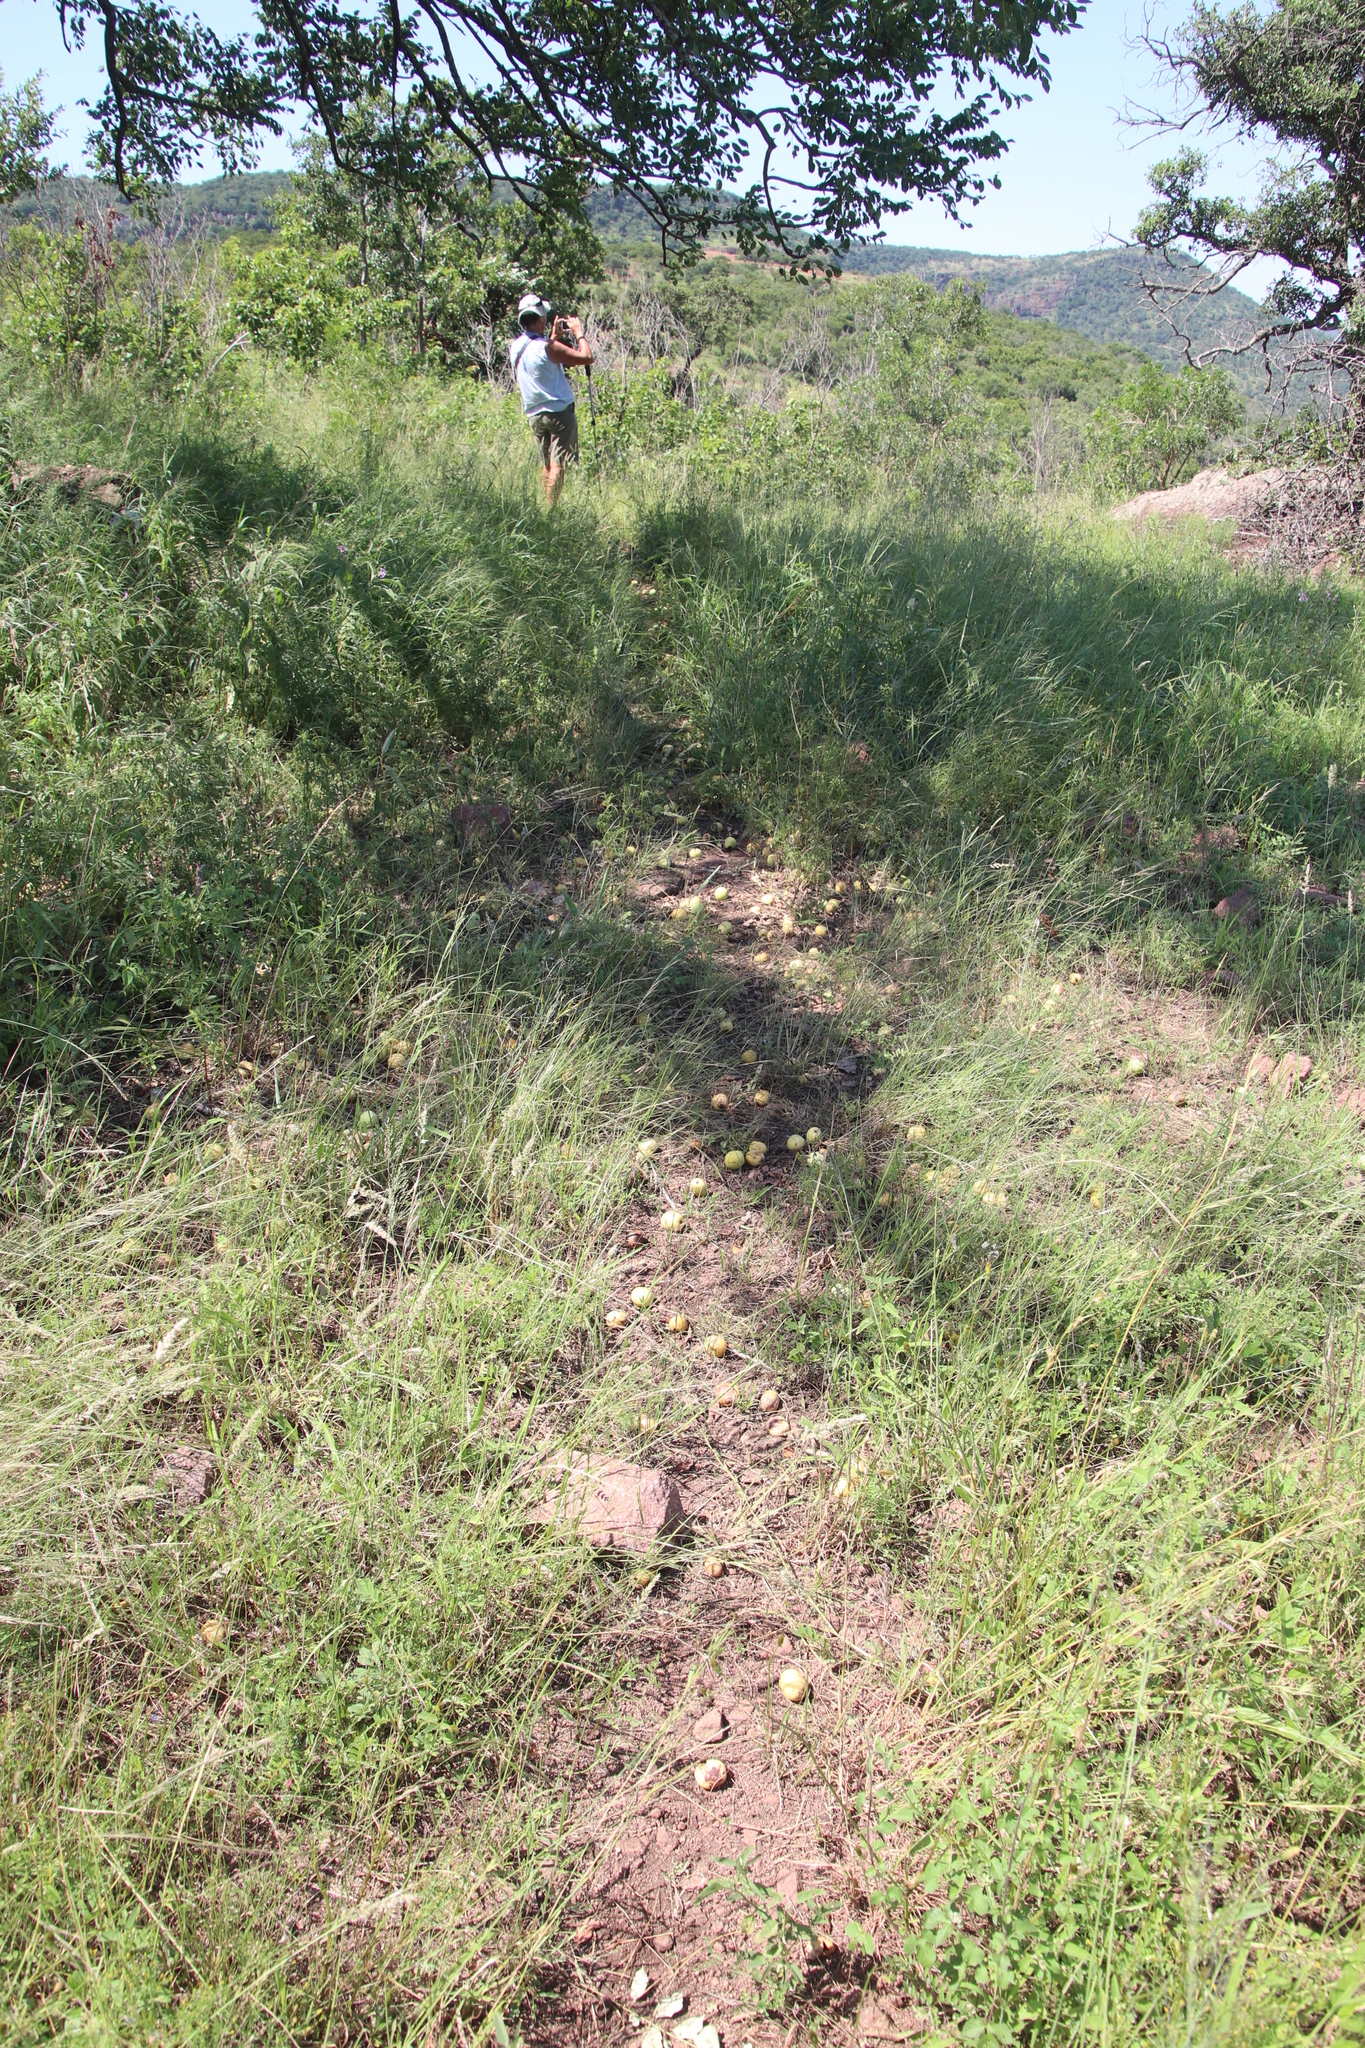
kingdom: Plantae
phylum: Tracheophyta
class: Magnoliopsida
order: Sapindales
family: Anacardiaceae
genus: Sclerocarya
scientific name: Sclerocarya birrea
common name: Marula
